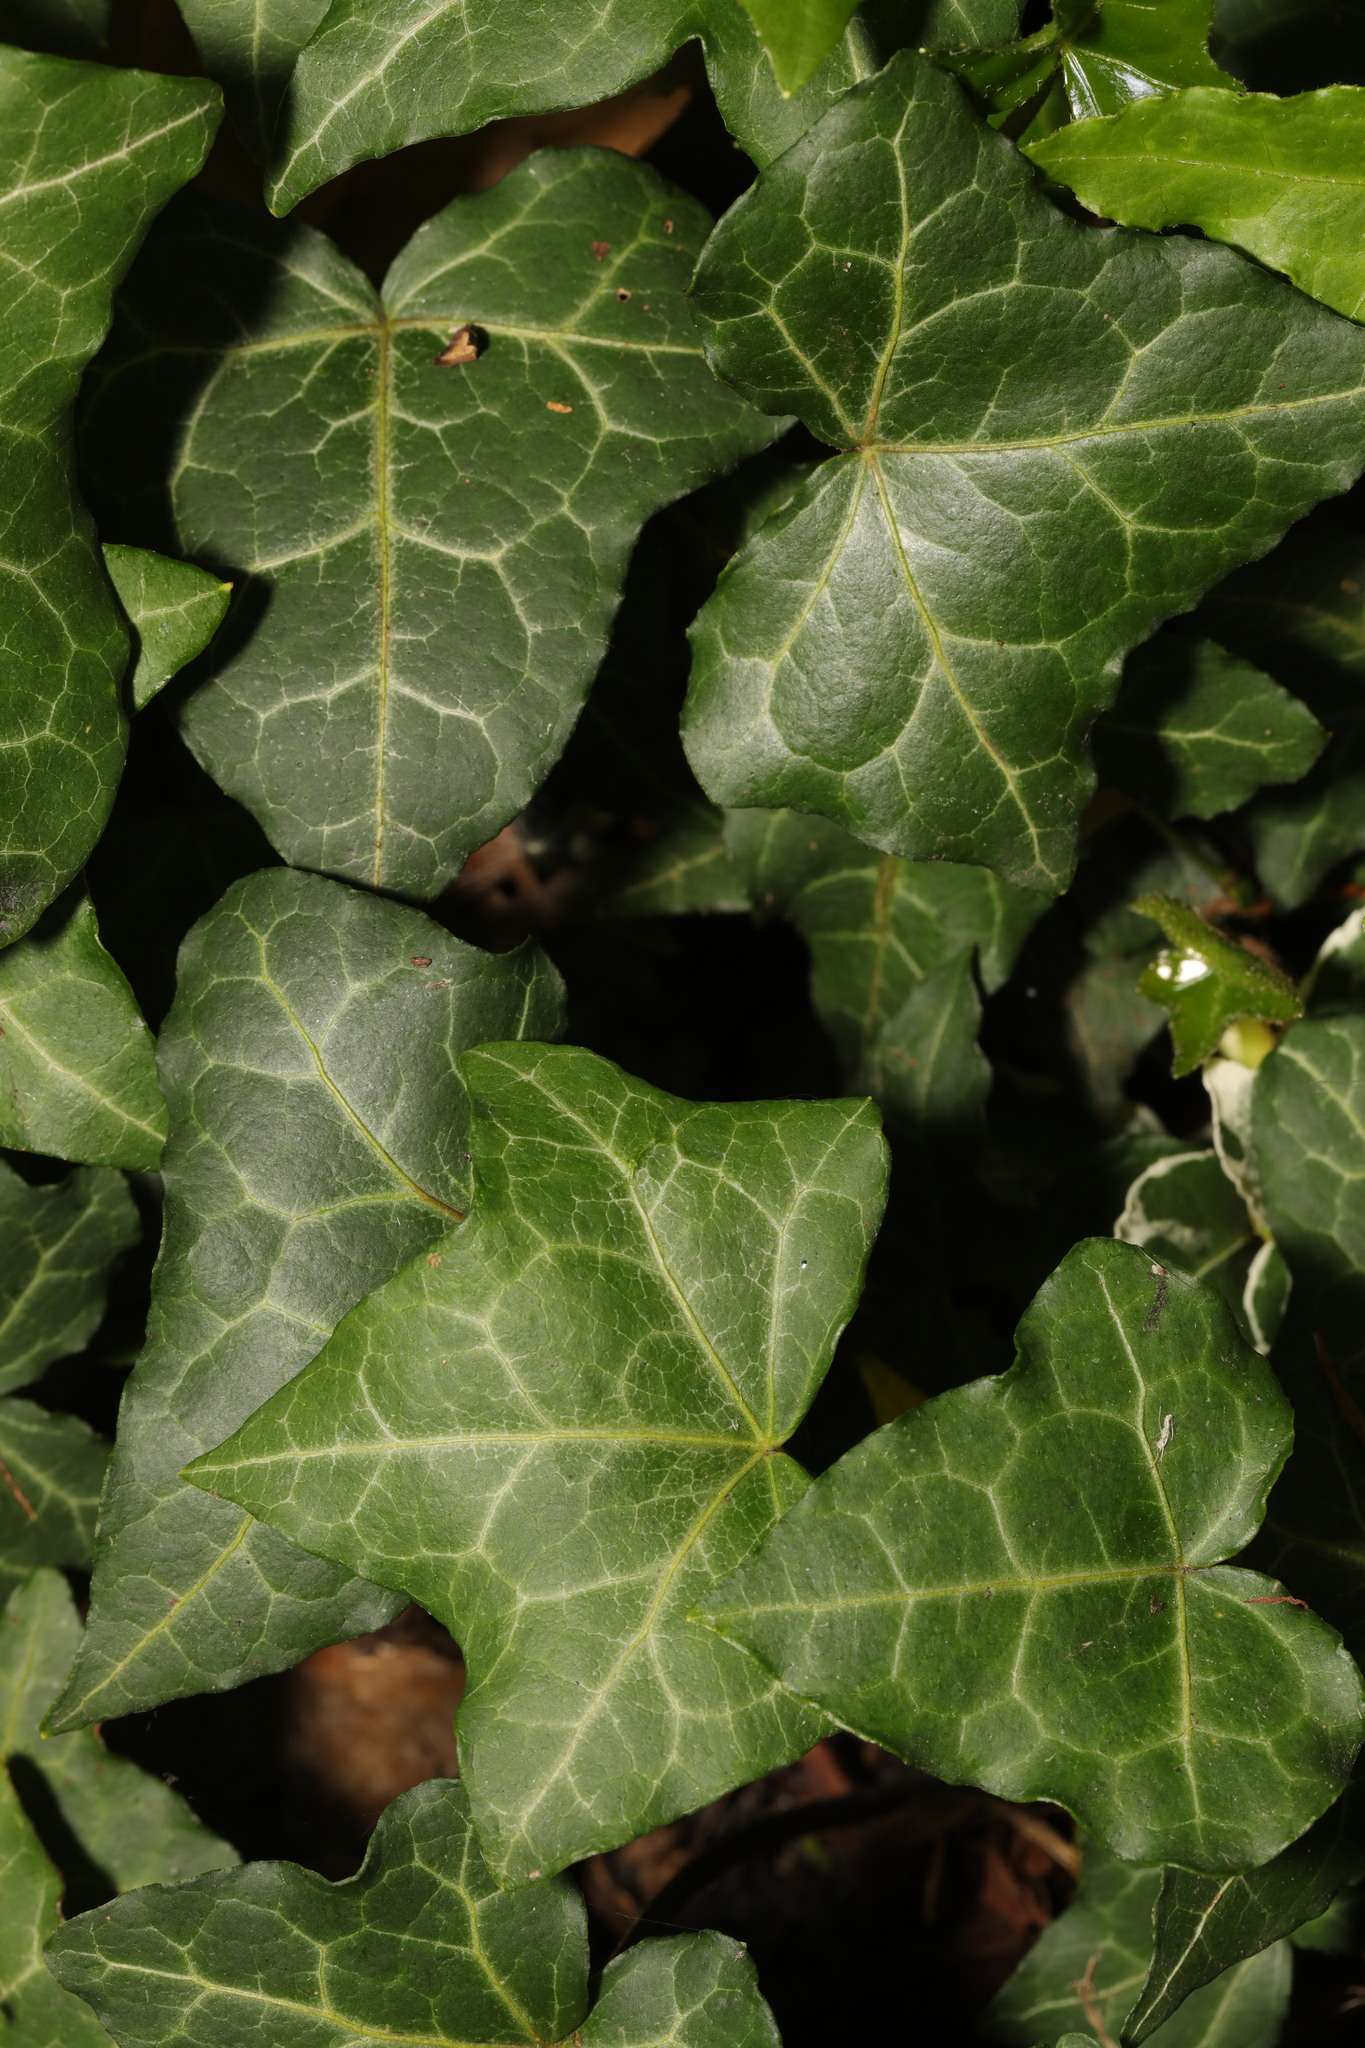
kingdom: Plantae
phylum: Tracheophyta
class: Magnoliopsida
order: Apiales
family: Araliaceae
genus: Hedera
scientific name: Hedera helix
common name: Ivy
